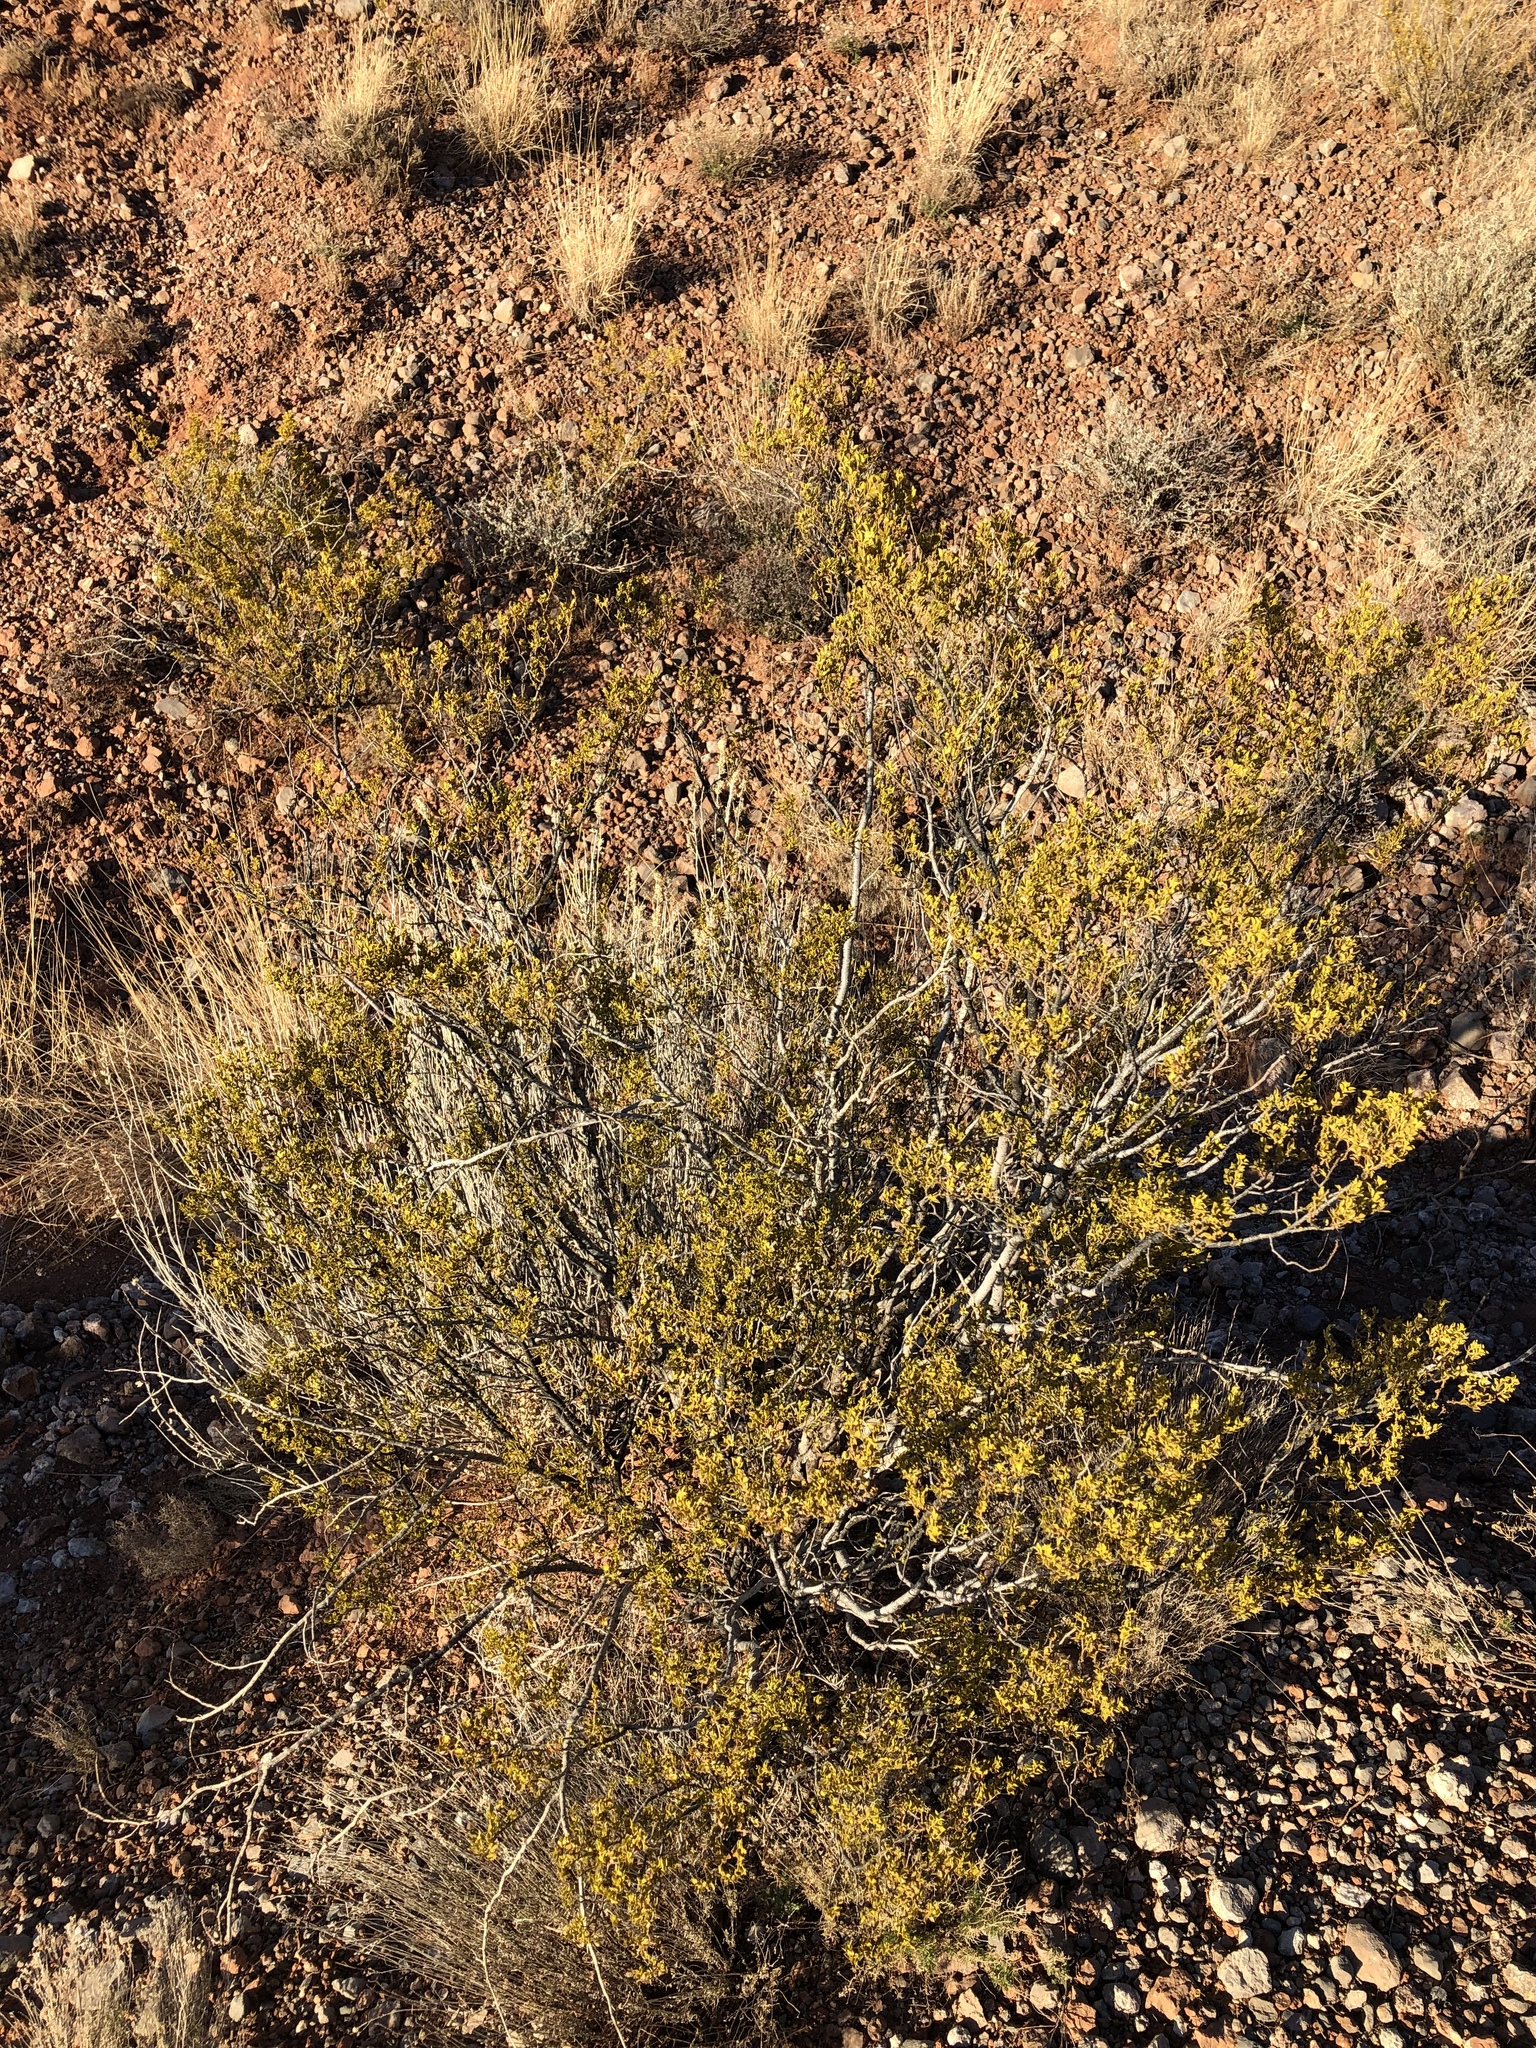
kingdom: Plantae
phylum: Tracheophyta
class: Magnoliopsida
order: Zygophyllales
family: Zygophyllaceae
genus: Larrea
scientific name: Larrea tridentata
